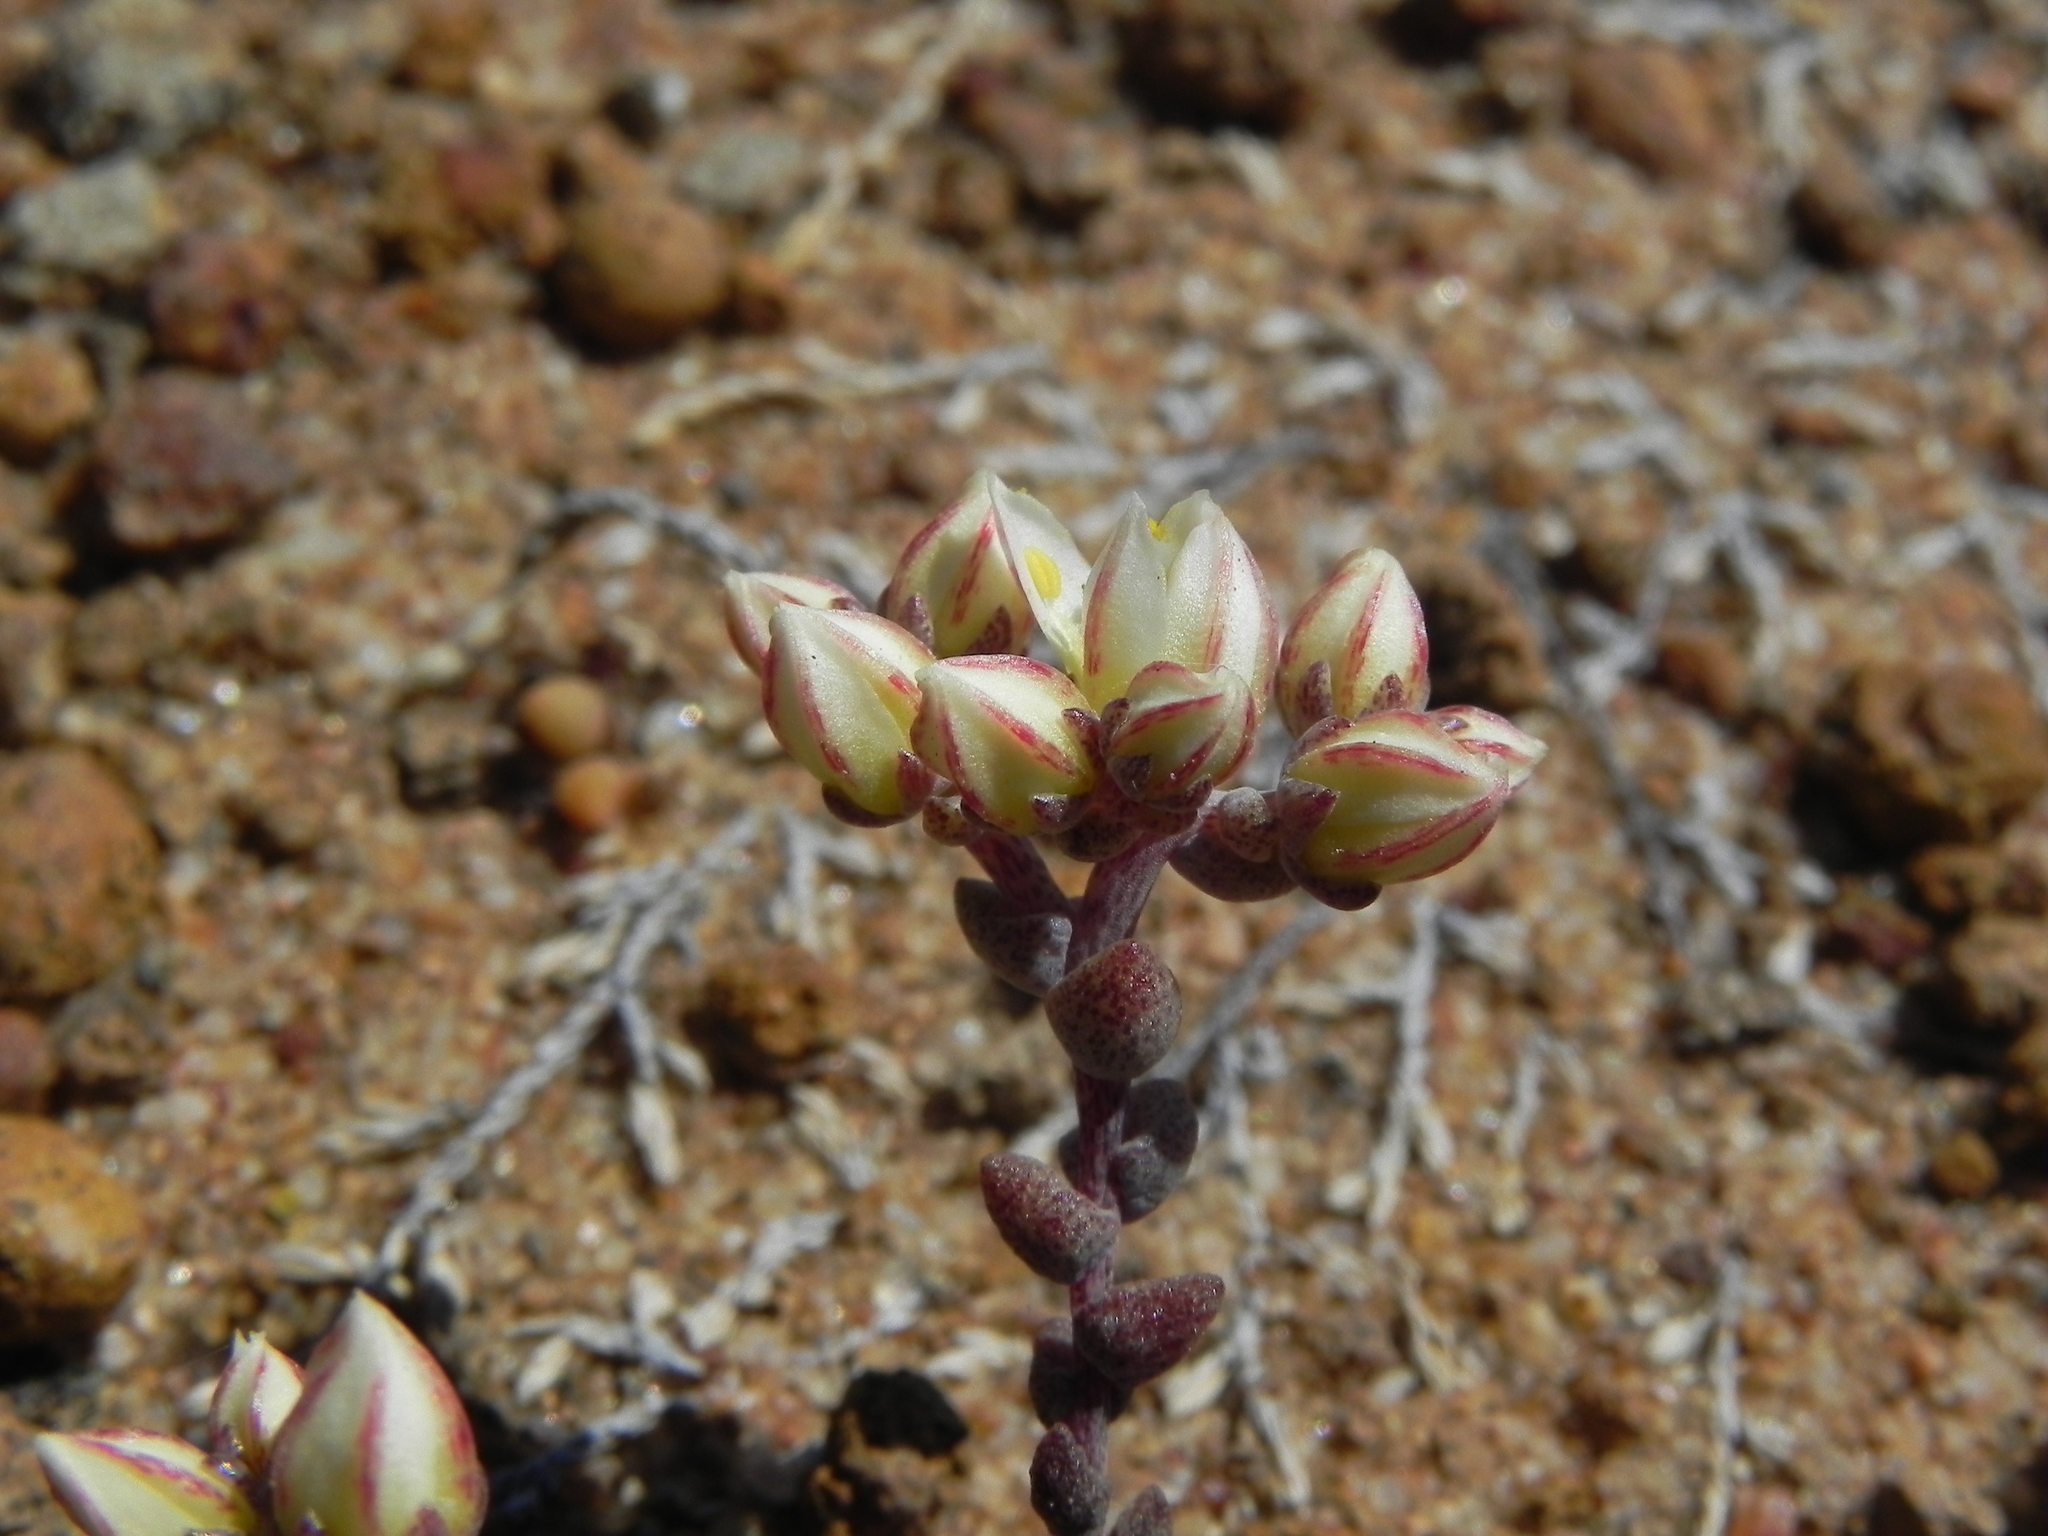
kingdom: Plantae
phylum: Tracheophyta
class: Magnoliopsida
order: Saxifragales
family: Crassulaceae
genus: Dudleya
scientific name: Dudleya blochmaniae
